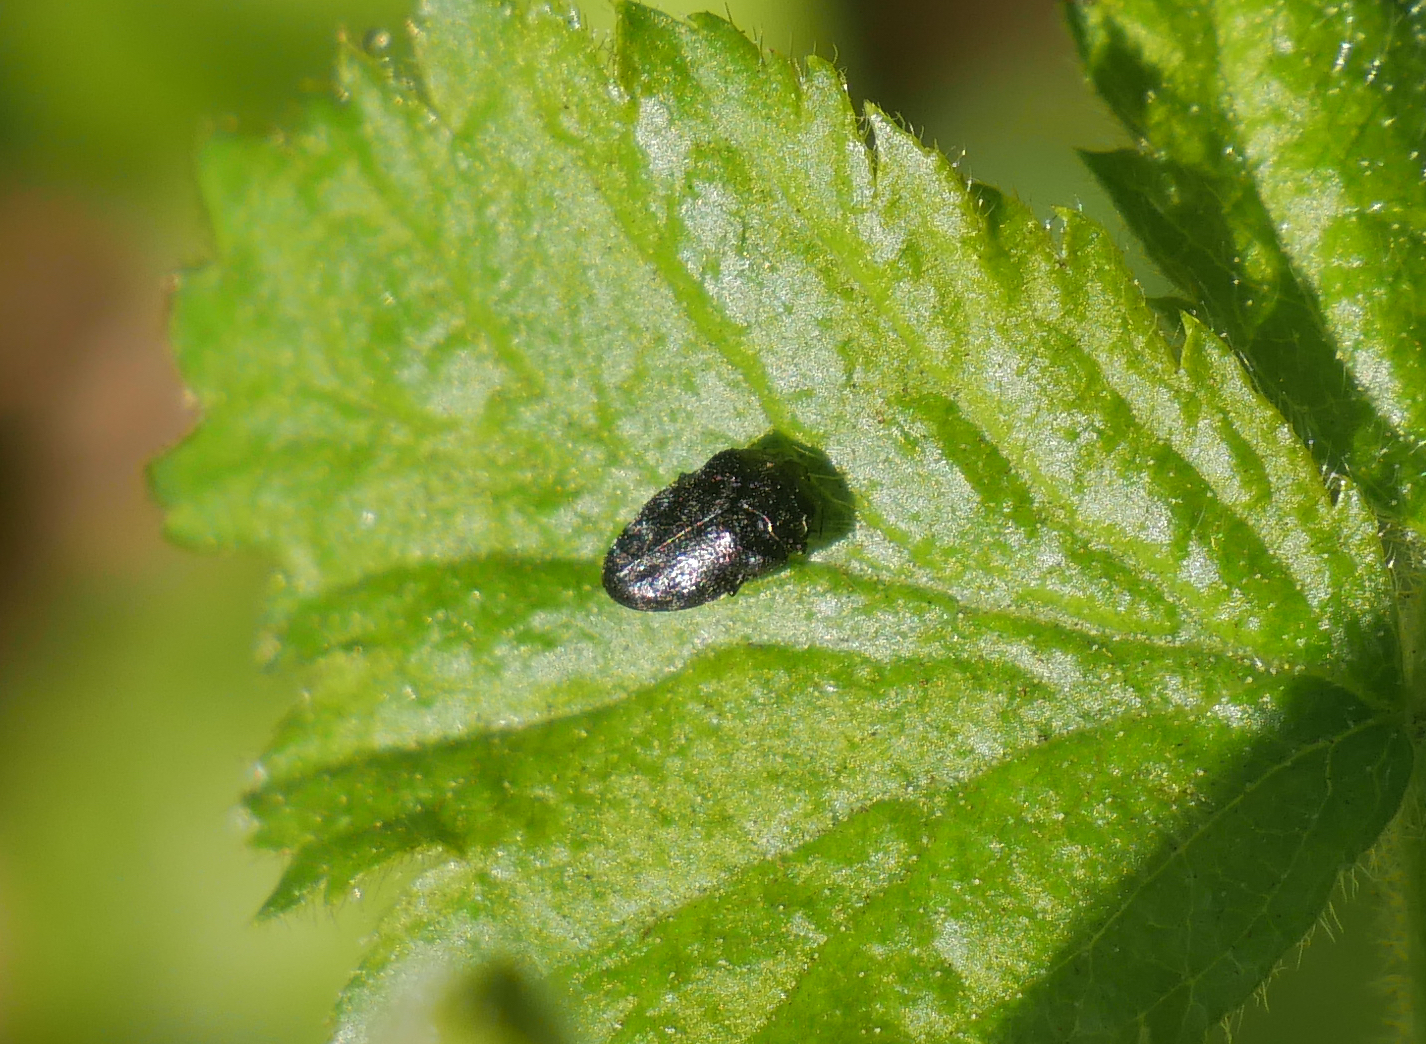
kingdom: Animalia
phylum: Arthropoda
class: Insecta
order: Coleoptera
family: Buprestidae
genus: Trachys
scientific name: Trachys minutus
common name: Metallic wood-boring beetle
